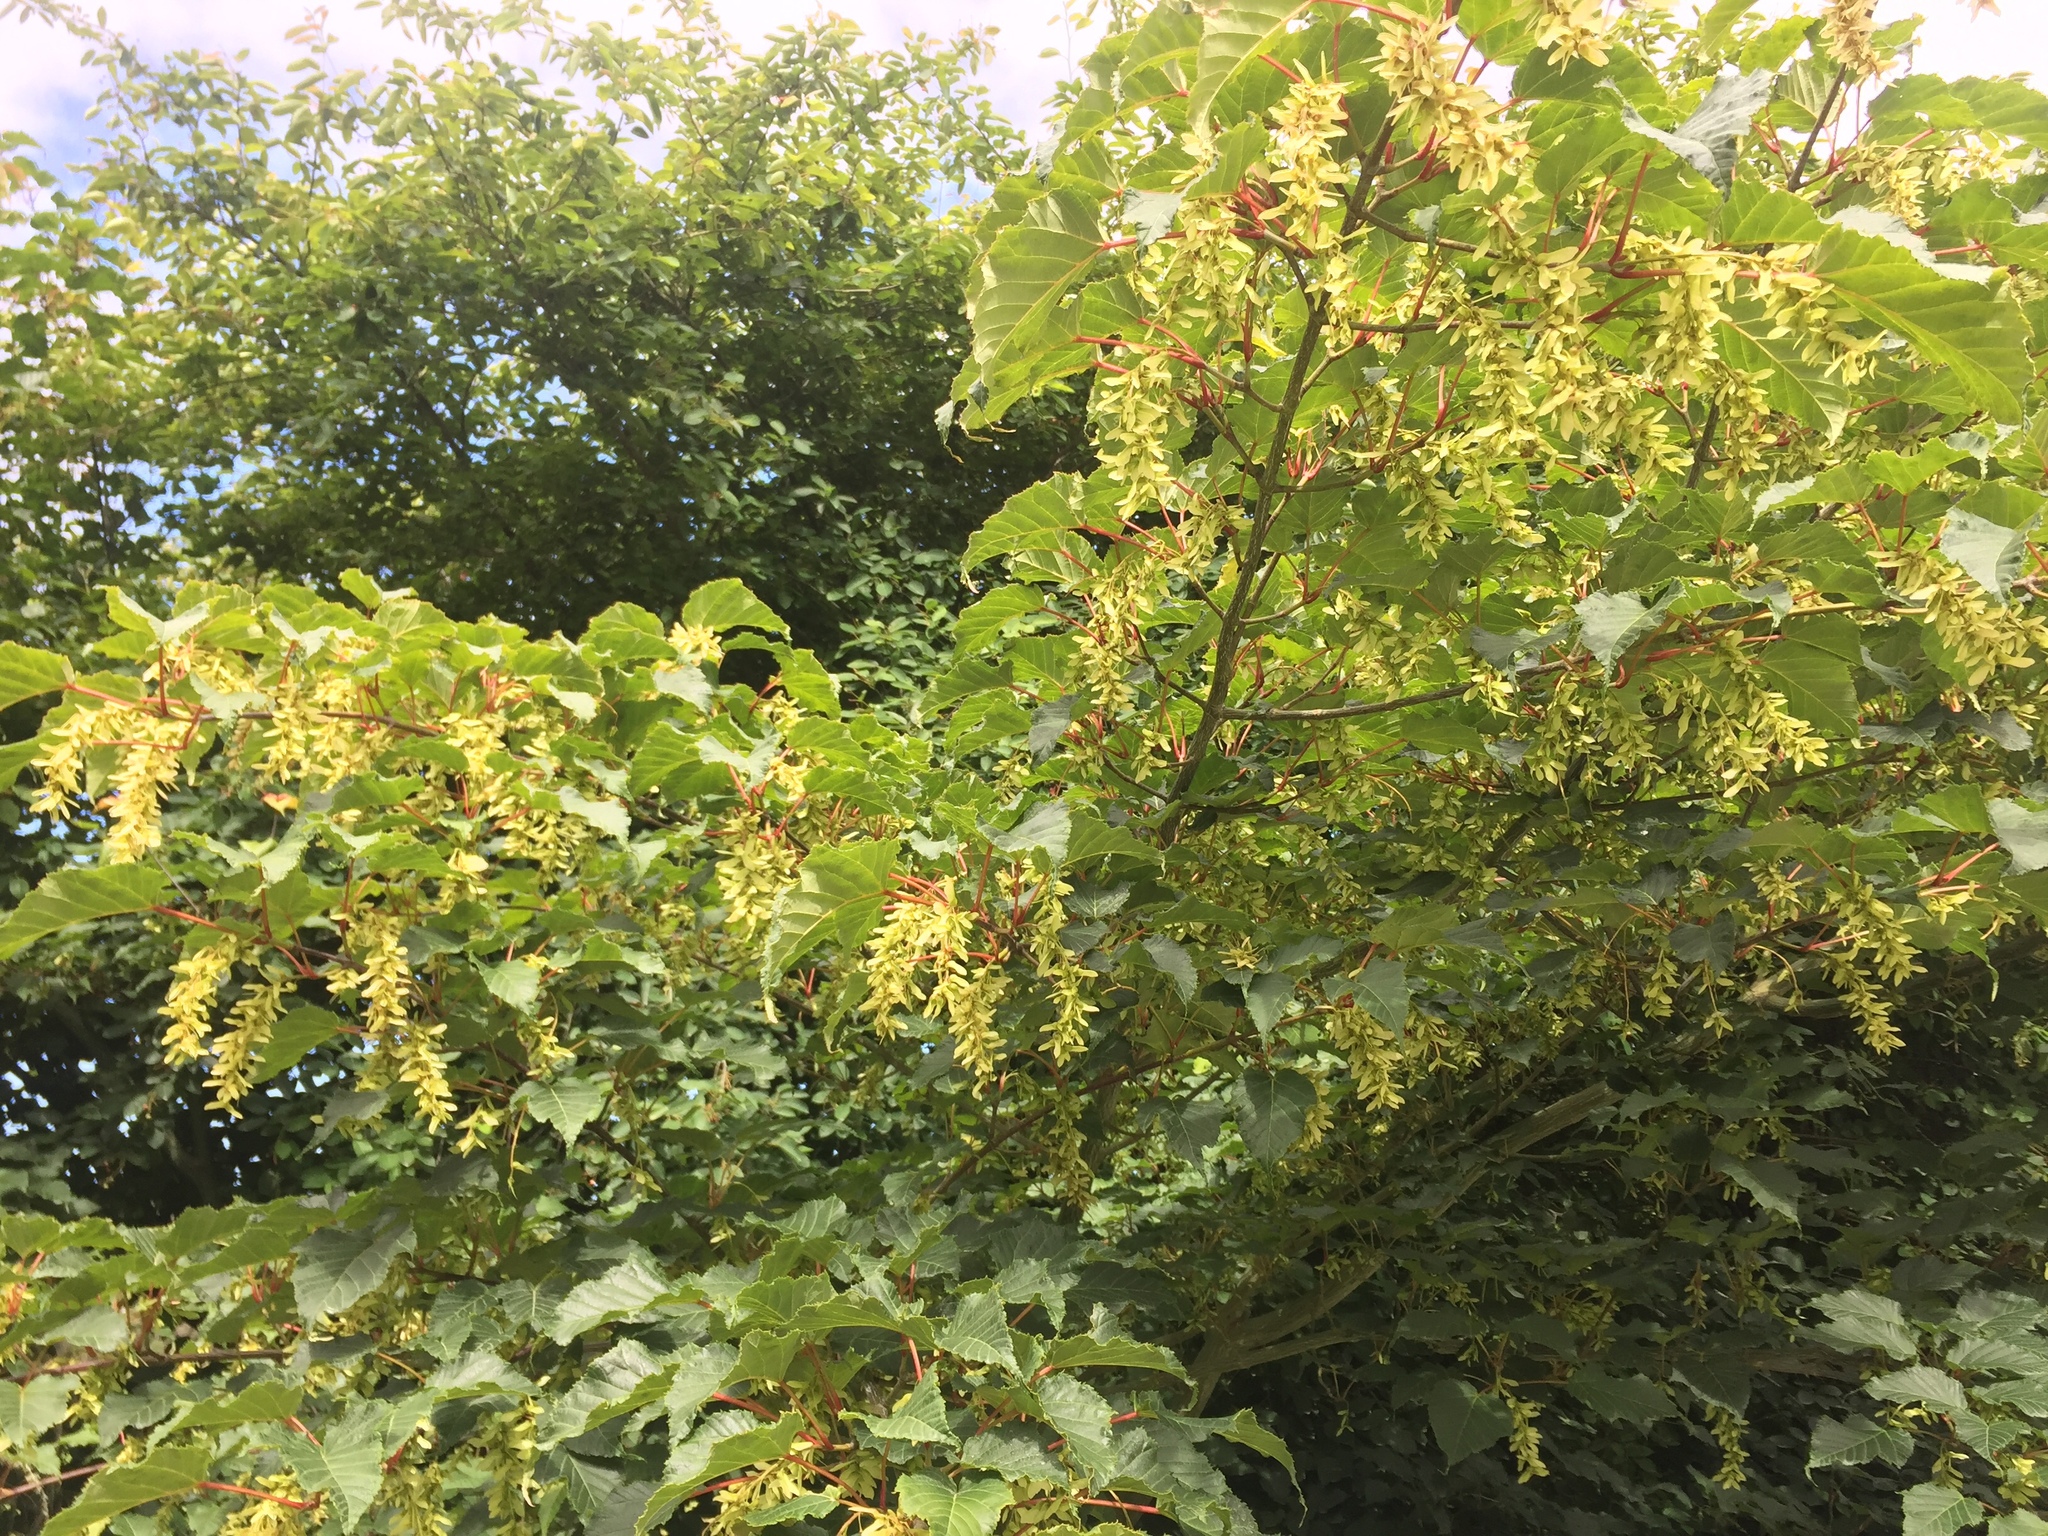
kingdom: Plantae
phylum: Tracheophyta
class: Magnoliopsida
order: Sapindales
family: Sapindaceae
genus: Acer
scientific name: Acer pseudoplatanus
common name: Sycamore
